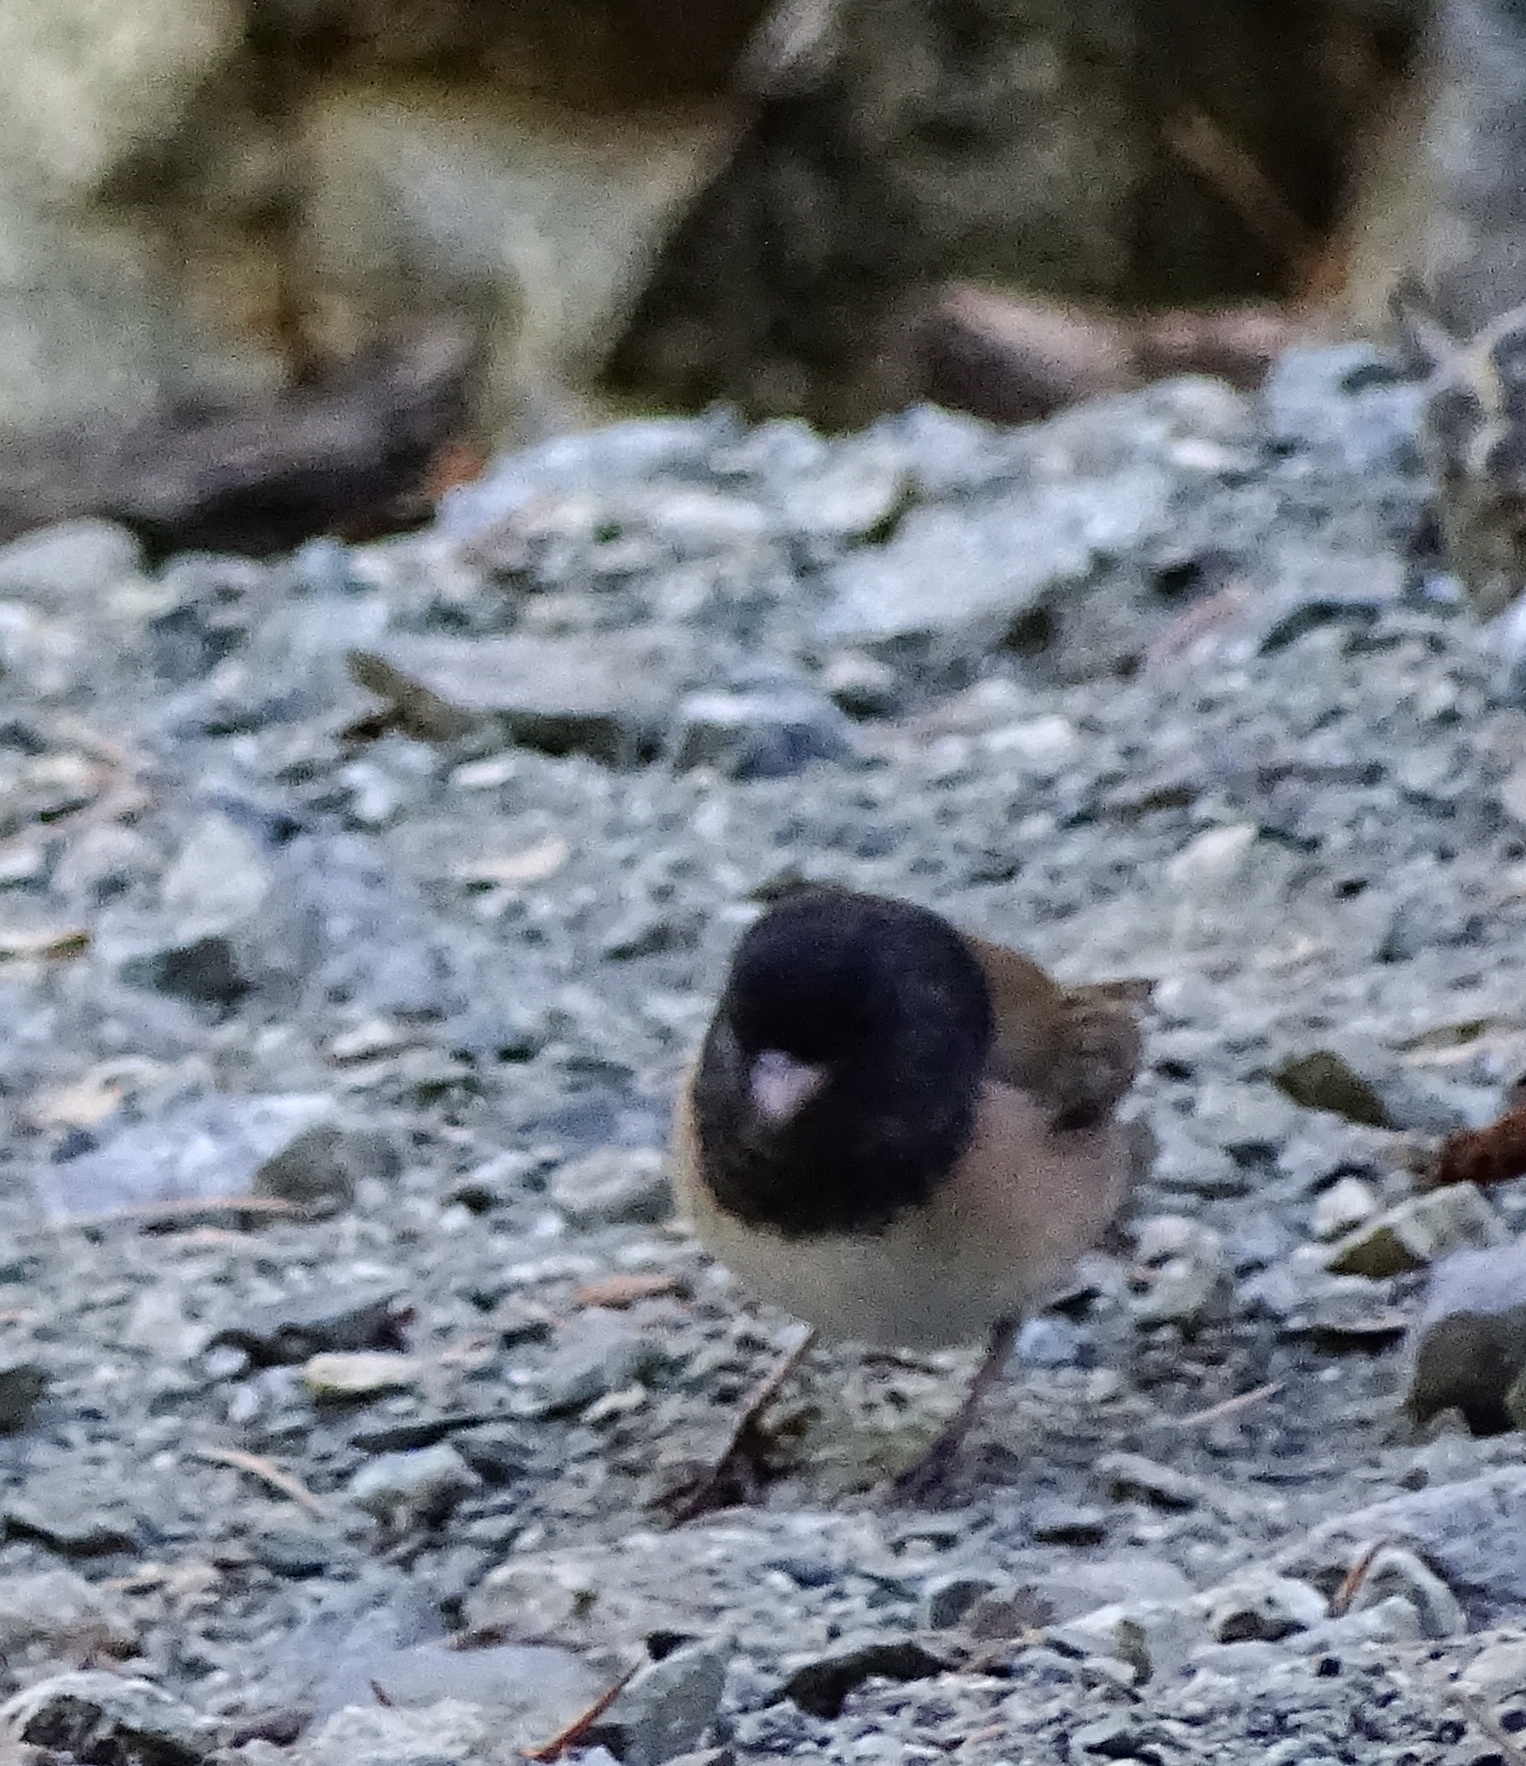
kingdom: Animalia
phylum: Chordata
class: Aves
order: Passeriformes
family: Passerellidae
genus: Junco
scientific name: Junco hyemalis
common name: Dark-eyed junco
